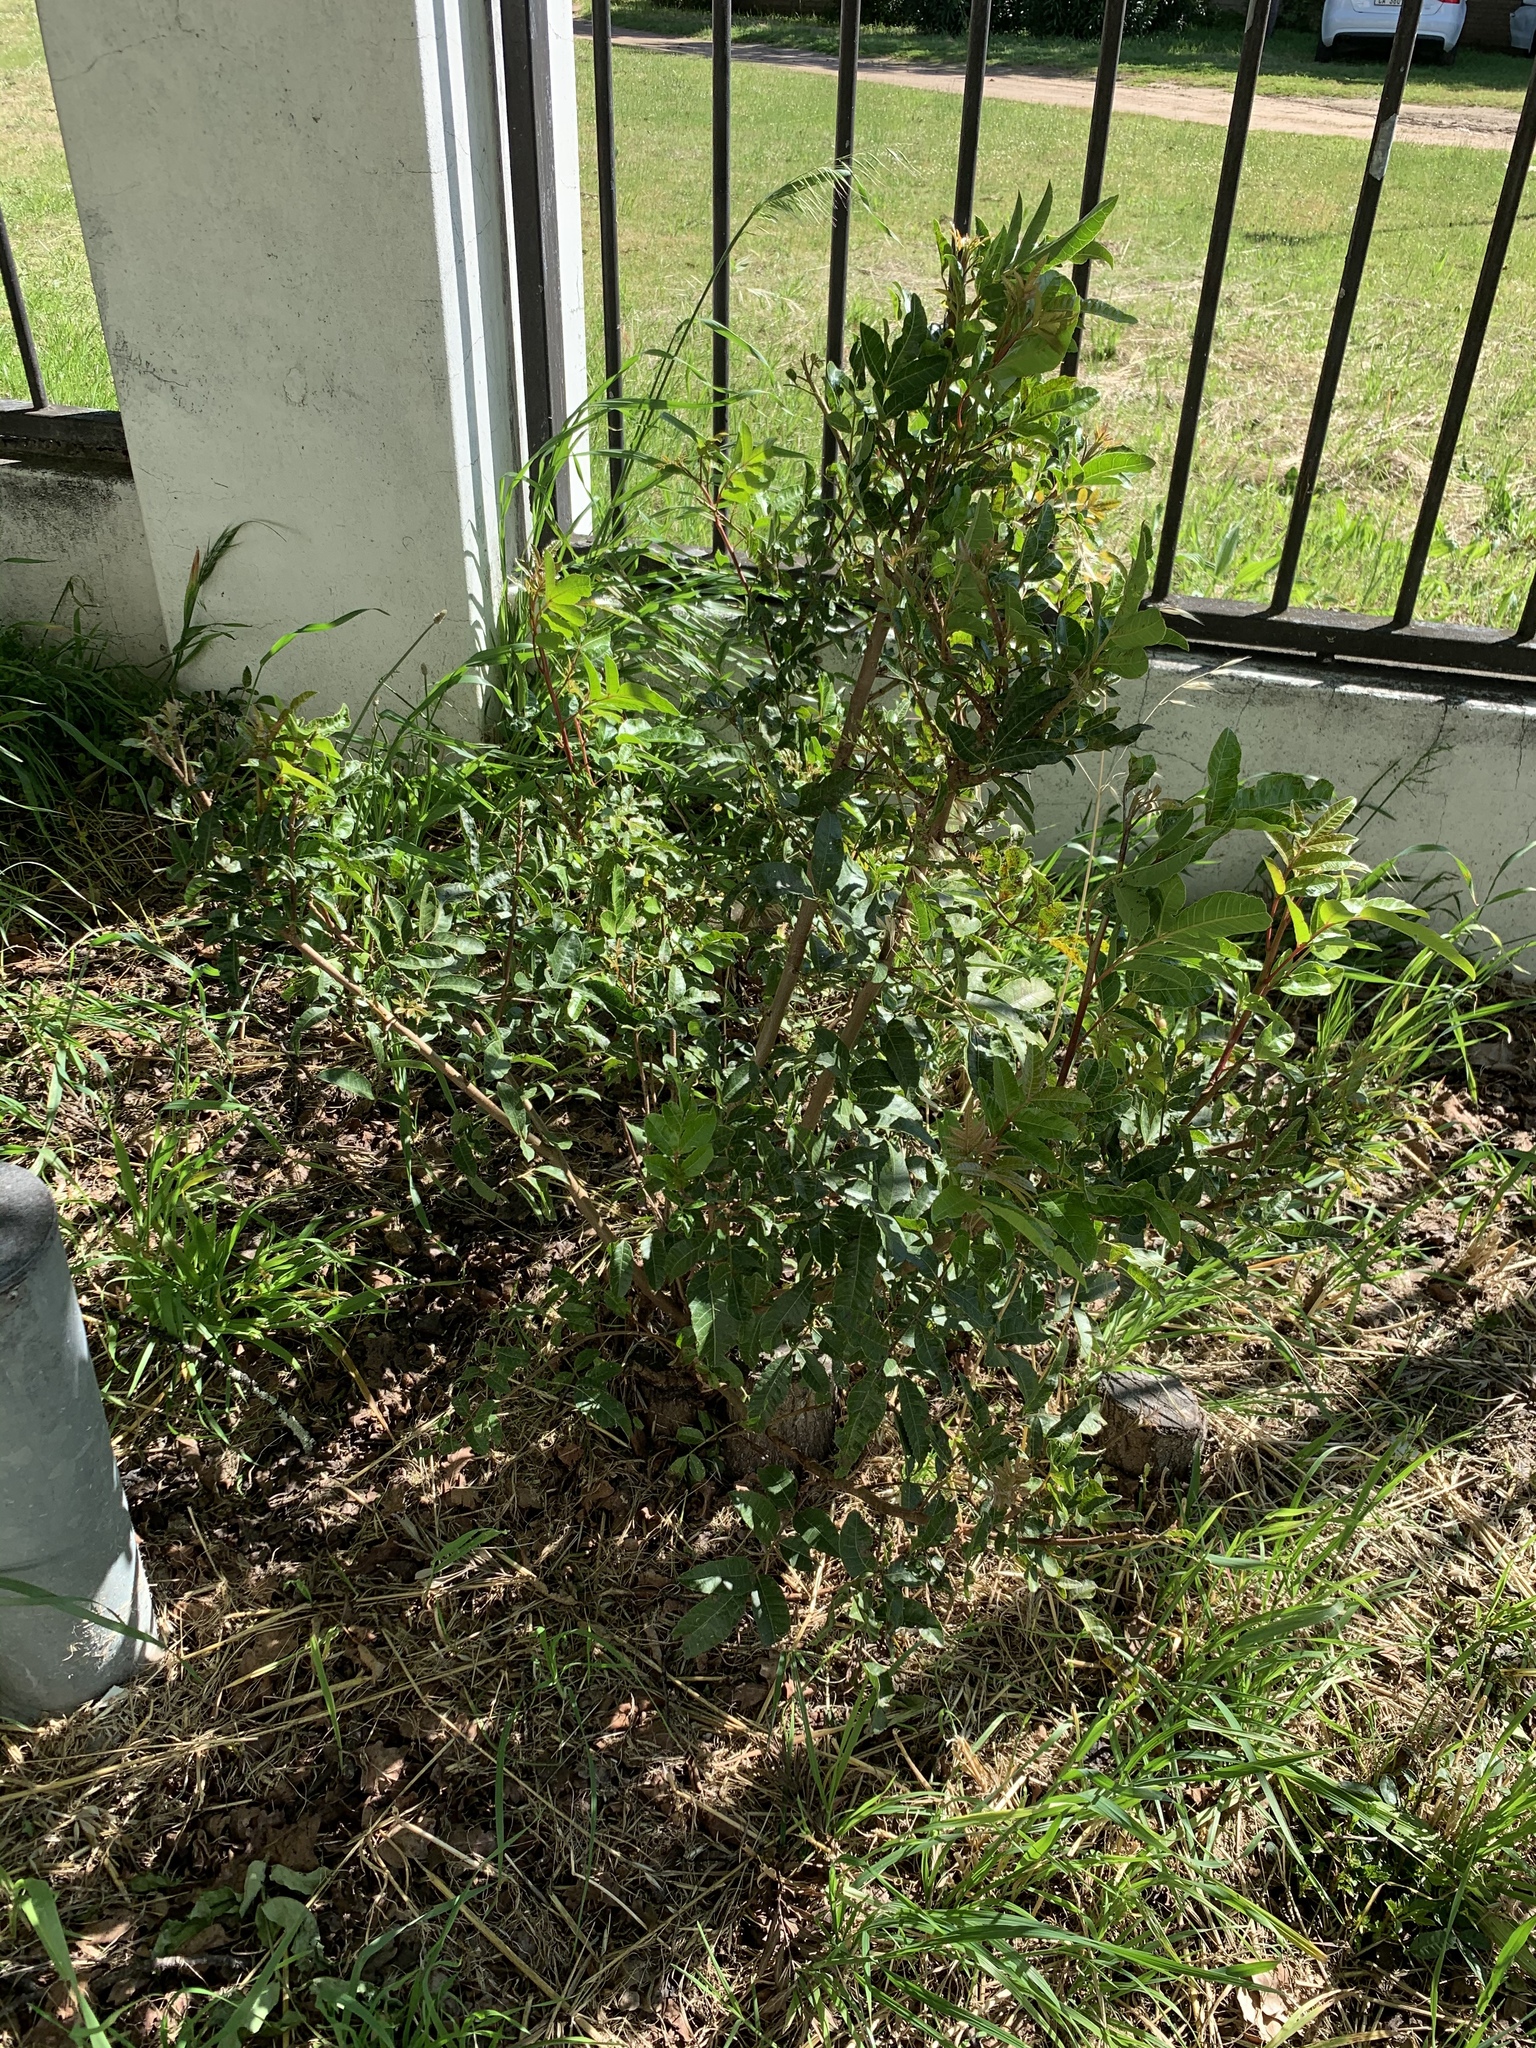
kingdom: Plantae
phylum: Tracheophyta
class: Magnoliopsida
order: Sapindales
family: Anacardiaceae
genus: Schinus
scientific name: Schinus terebinthifolia
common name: Brazilian peppertree
